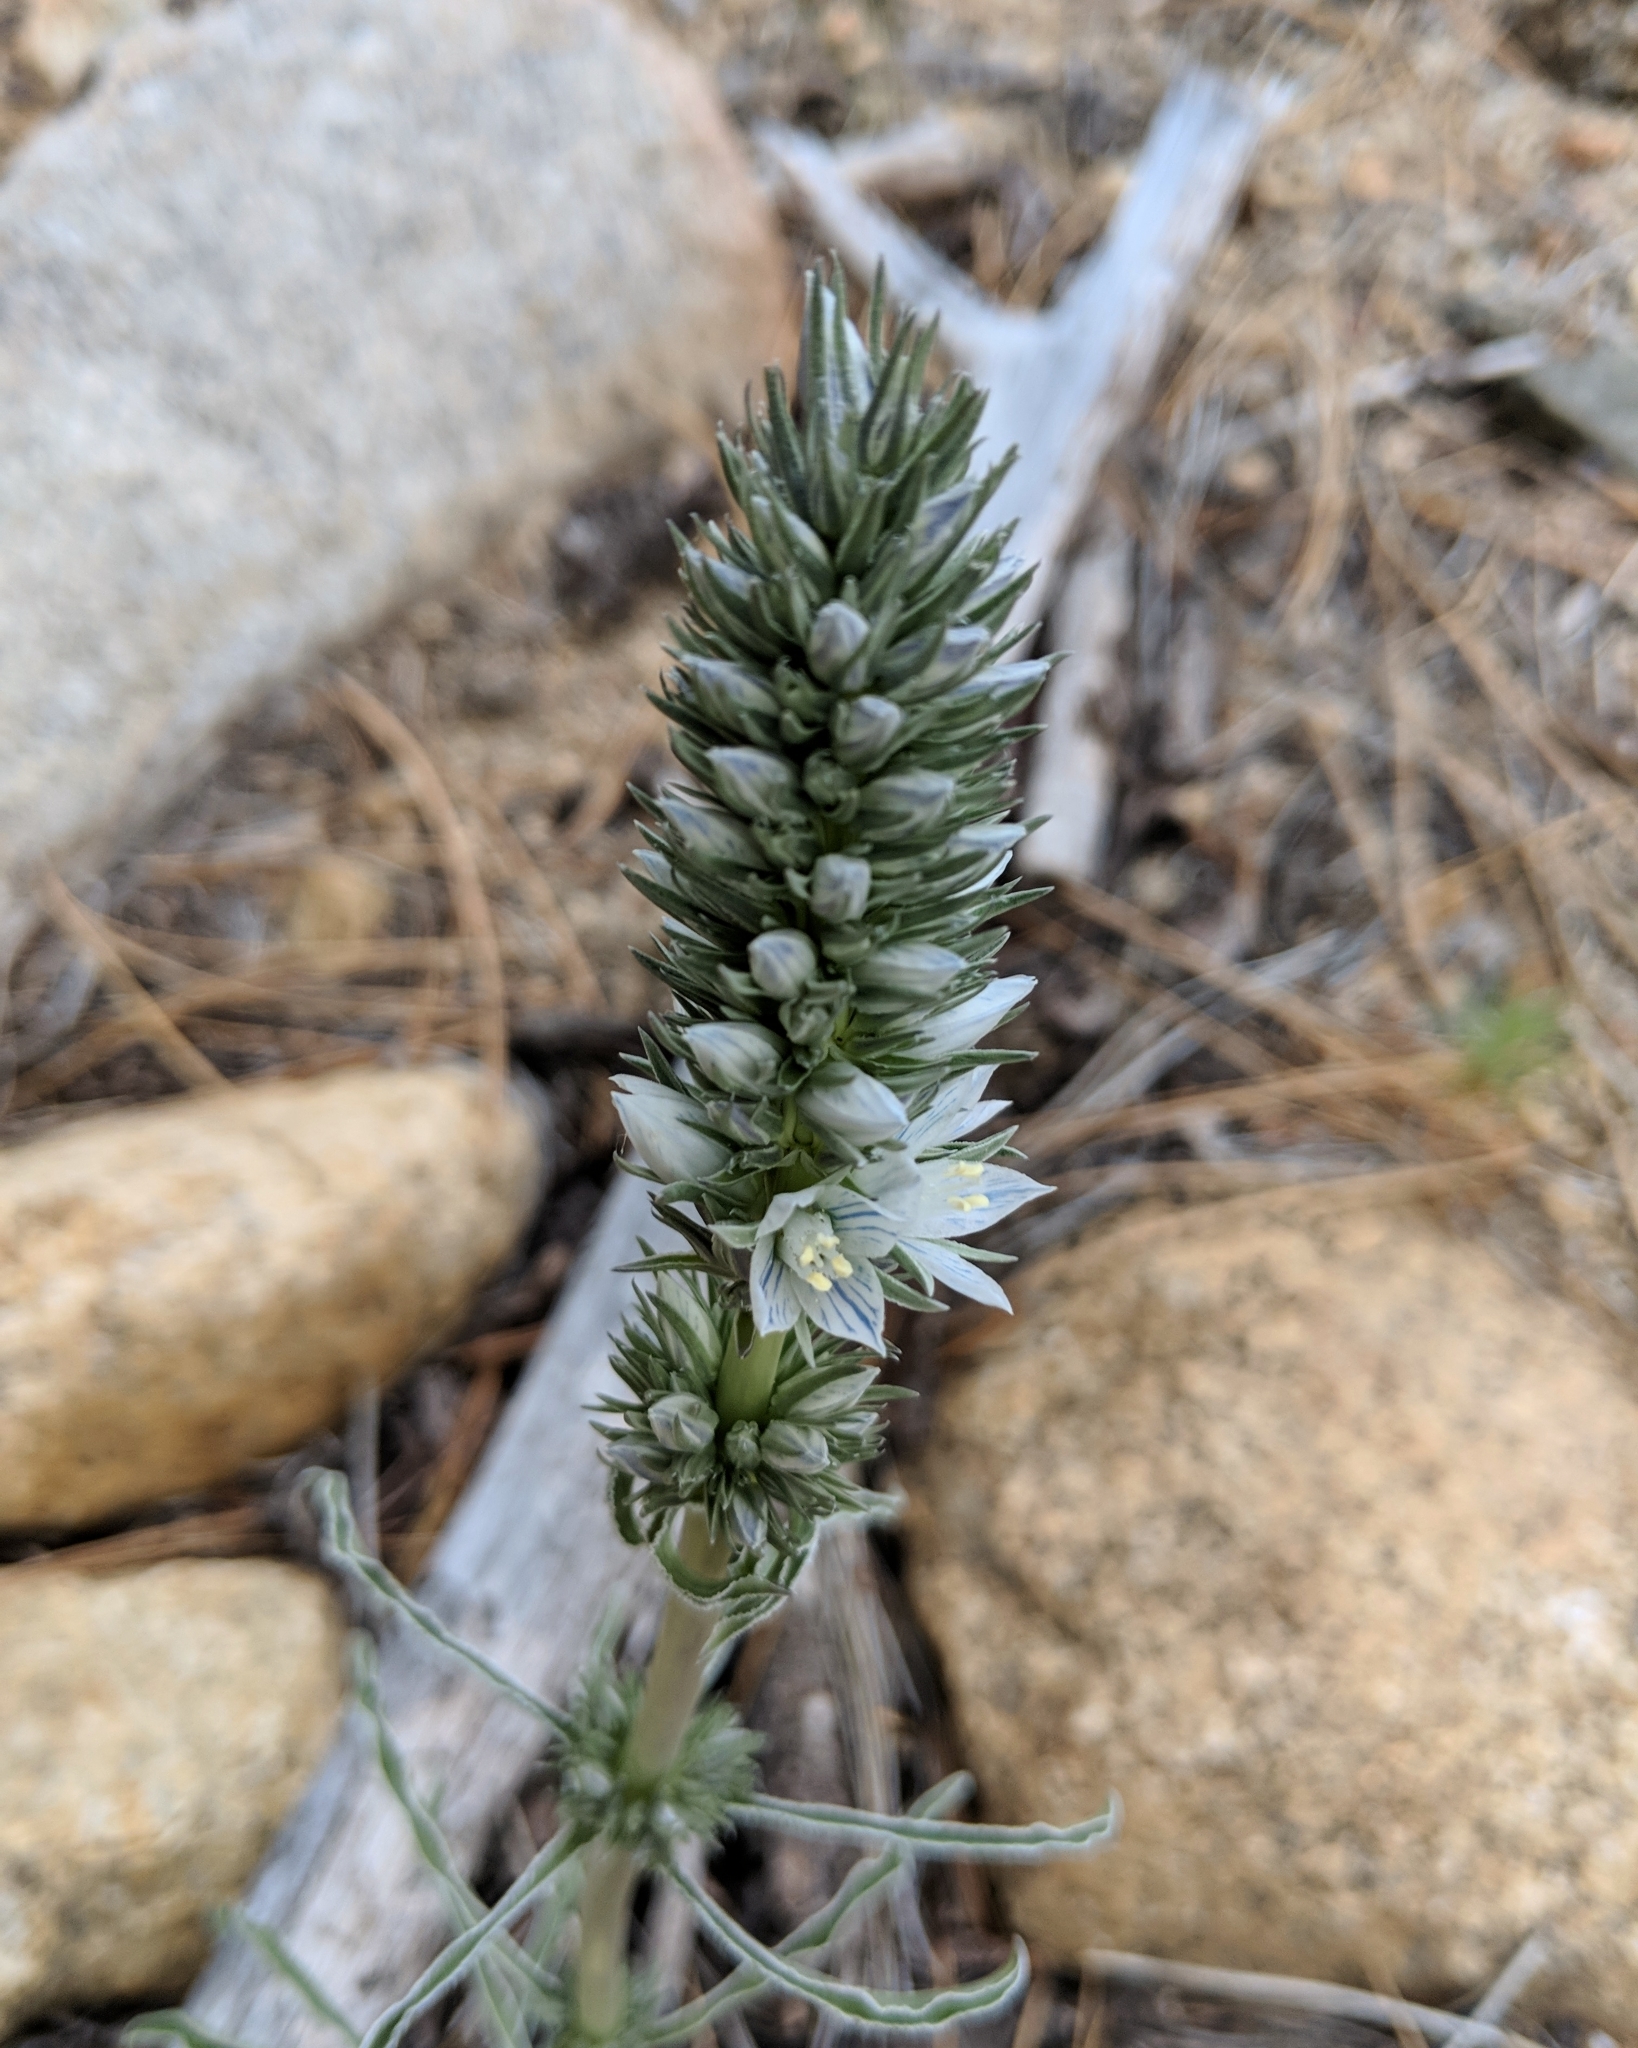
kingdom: Plantae
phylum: Tracheophyta
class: Magnoliopsida
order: Gentianales
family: Gentianaceae
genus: Frasera
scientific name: Frasera tubulosa
